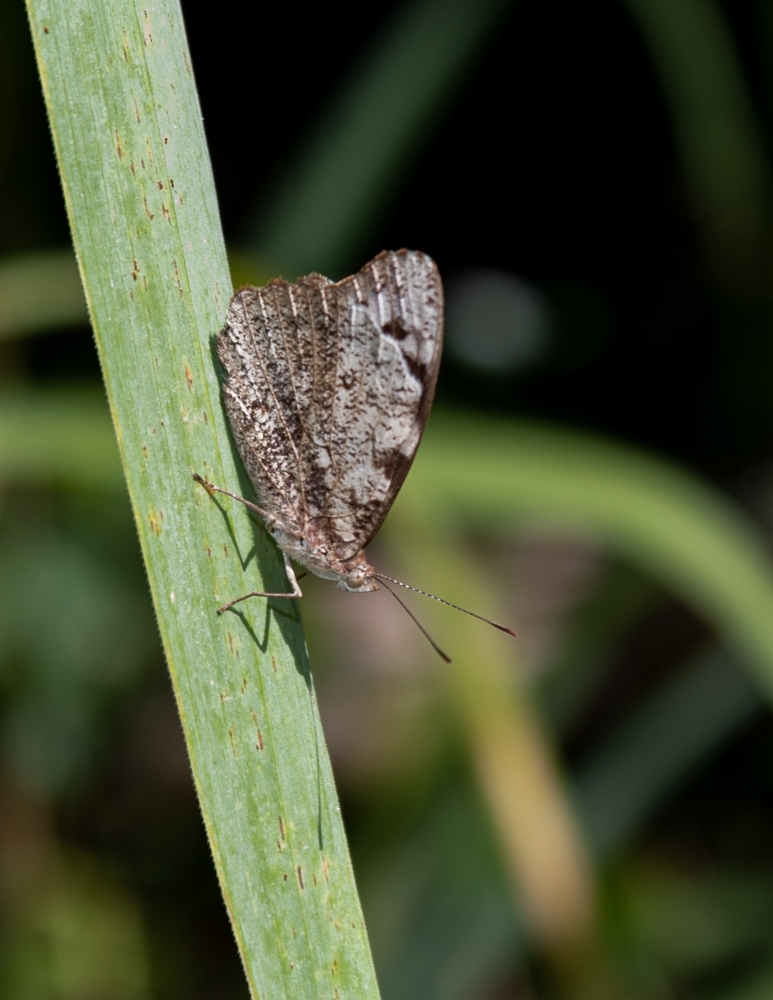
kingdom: Animalia
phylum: Arthropoda
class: Insecta
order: Lepidoptera
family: Nymphalidae
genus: Eunica
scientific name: Eunica margarita
